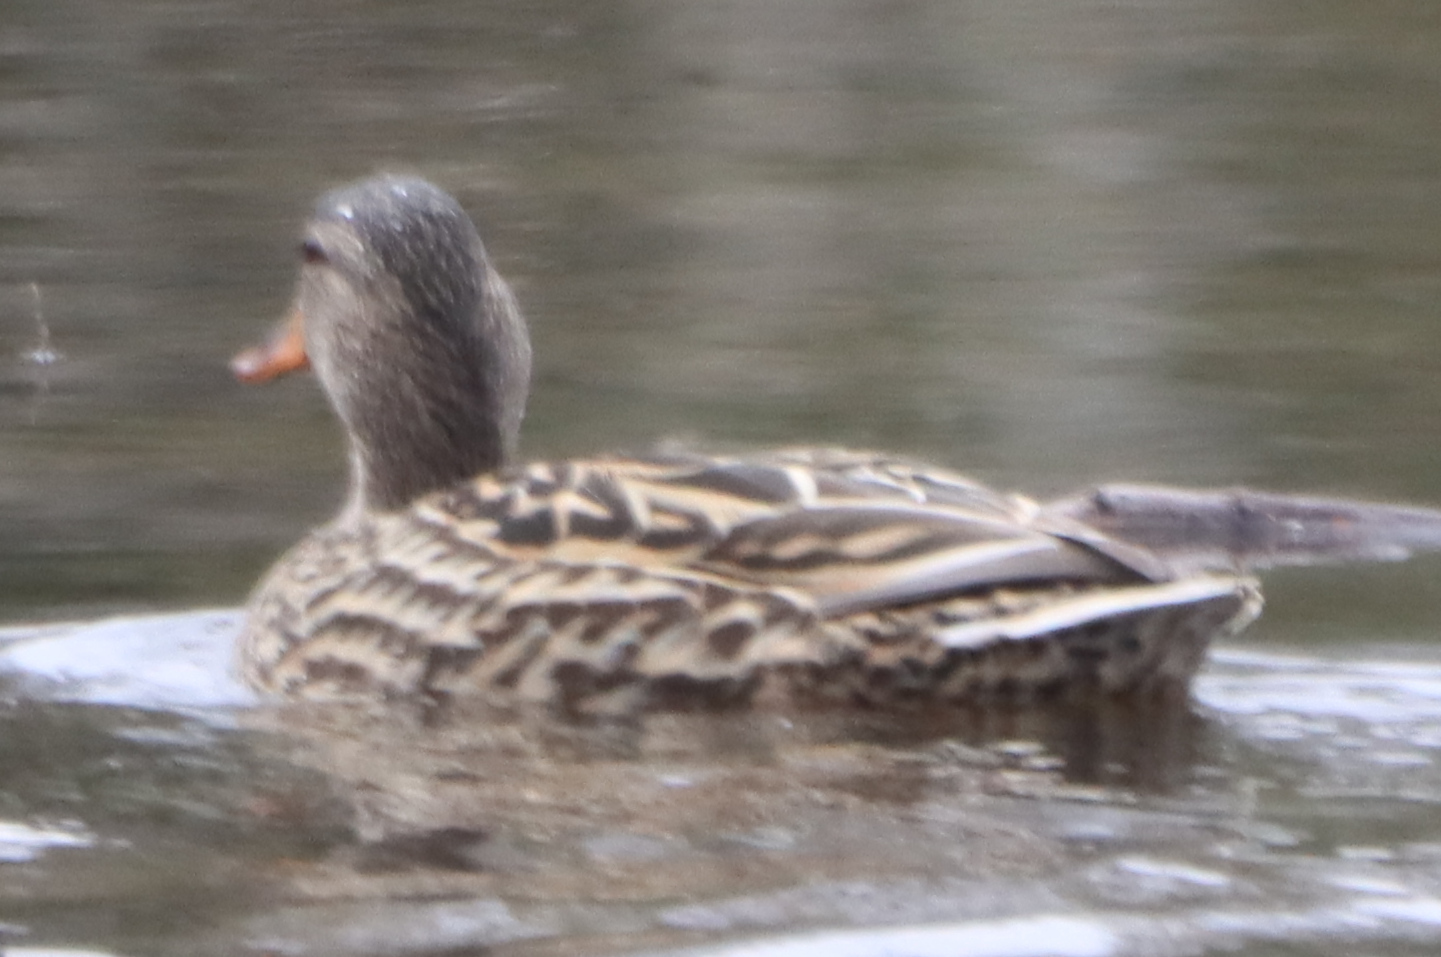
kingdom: Animalia
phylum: Chordata
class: Aves
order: Anseriformes
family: Anatidae
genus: Anas
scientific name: Anas platyrhynchos
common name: Mallard
